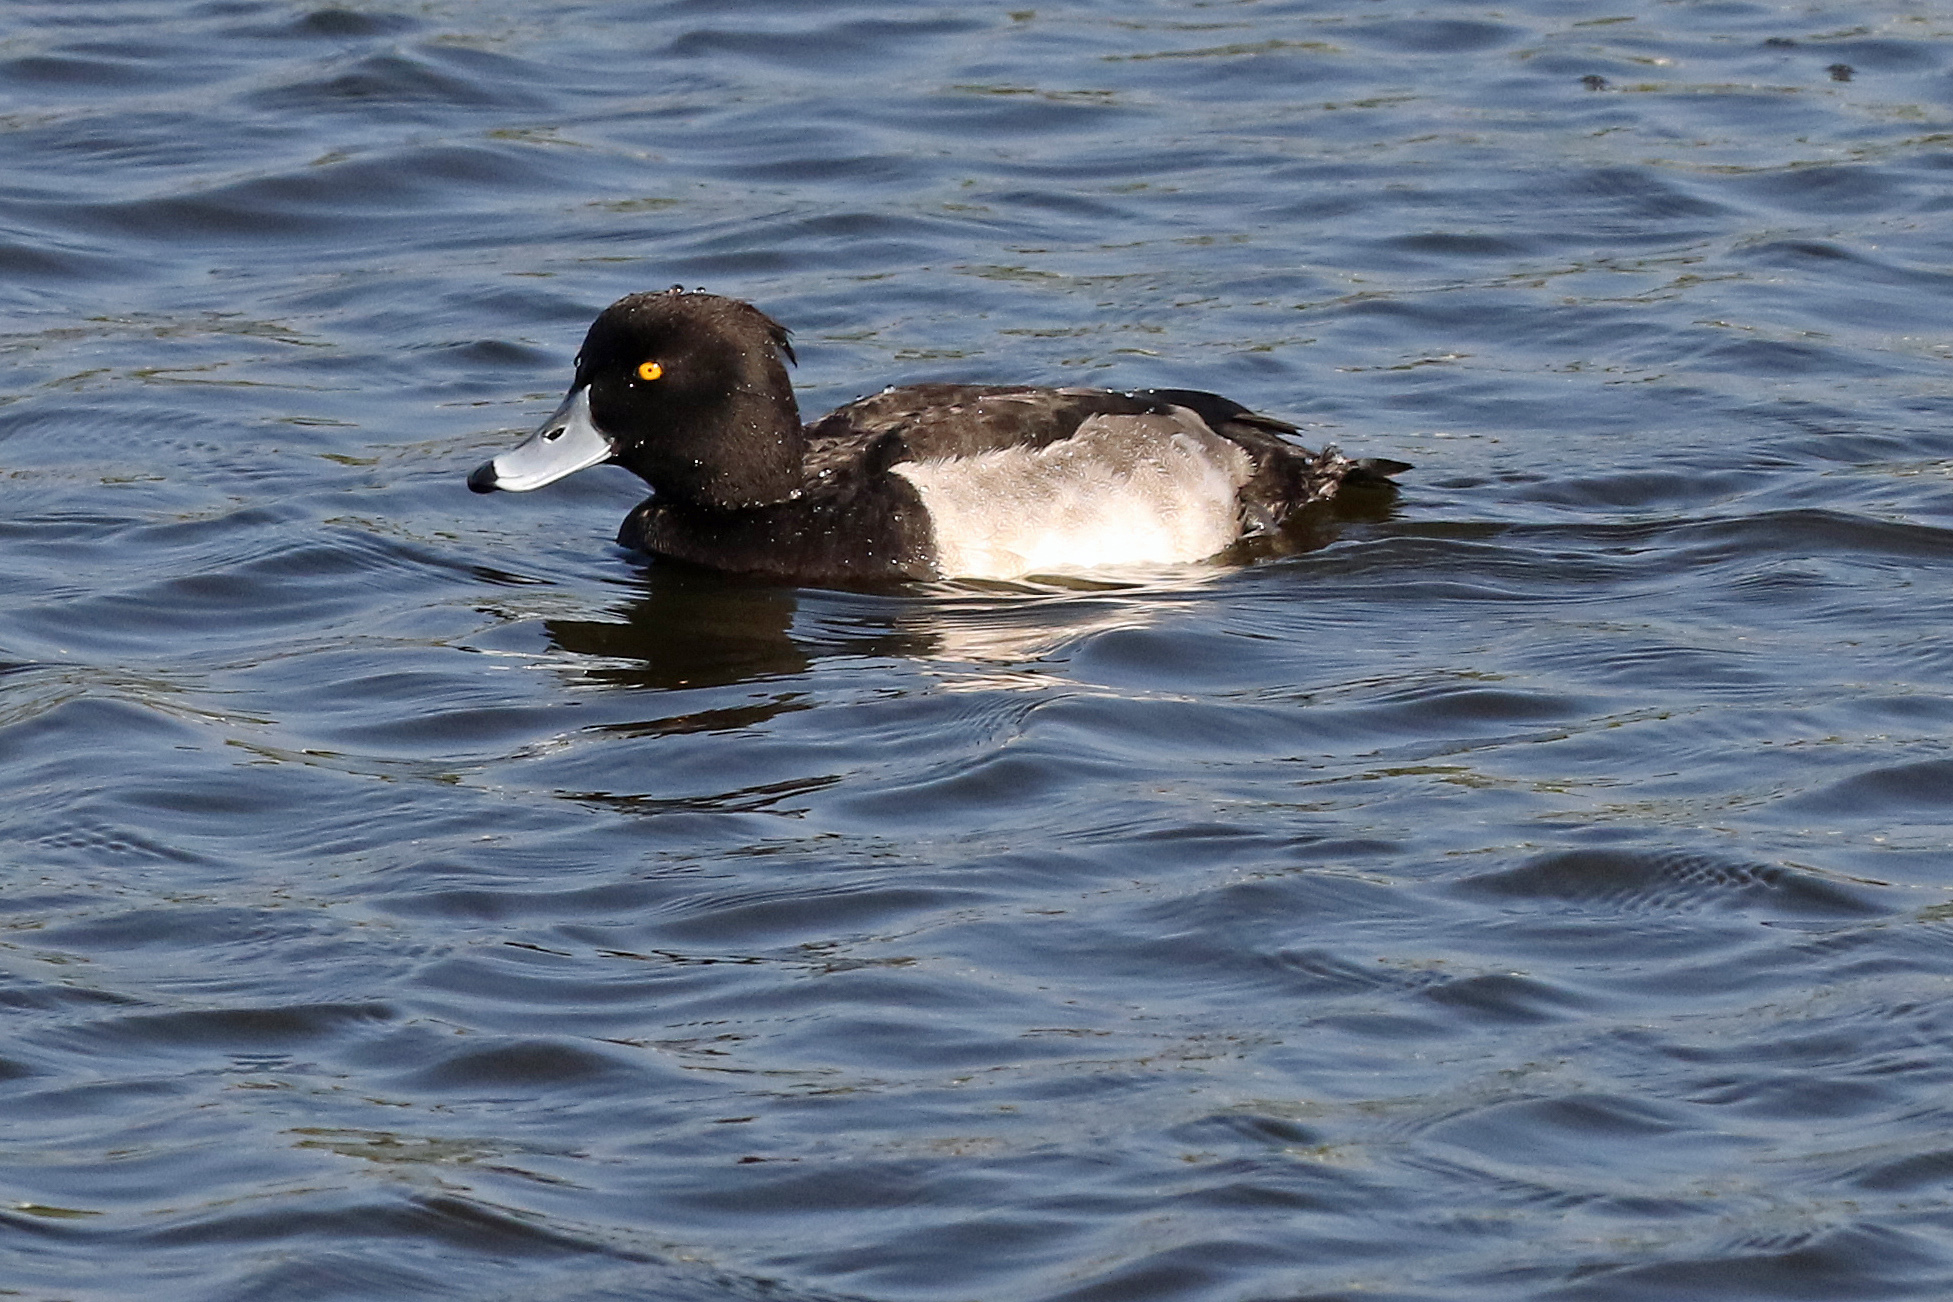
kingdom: Animalia
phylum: Chordata
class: Aves
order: Anseriformes
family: Anatidae
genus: Aythya
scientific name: Aythya fuligula
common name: Tufted duck
